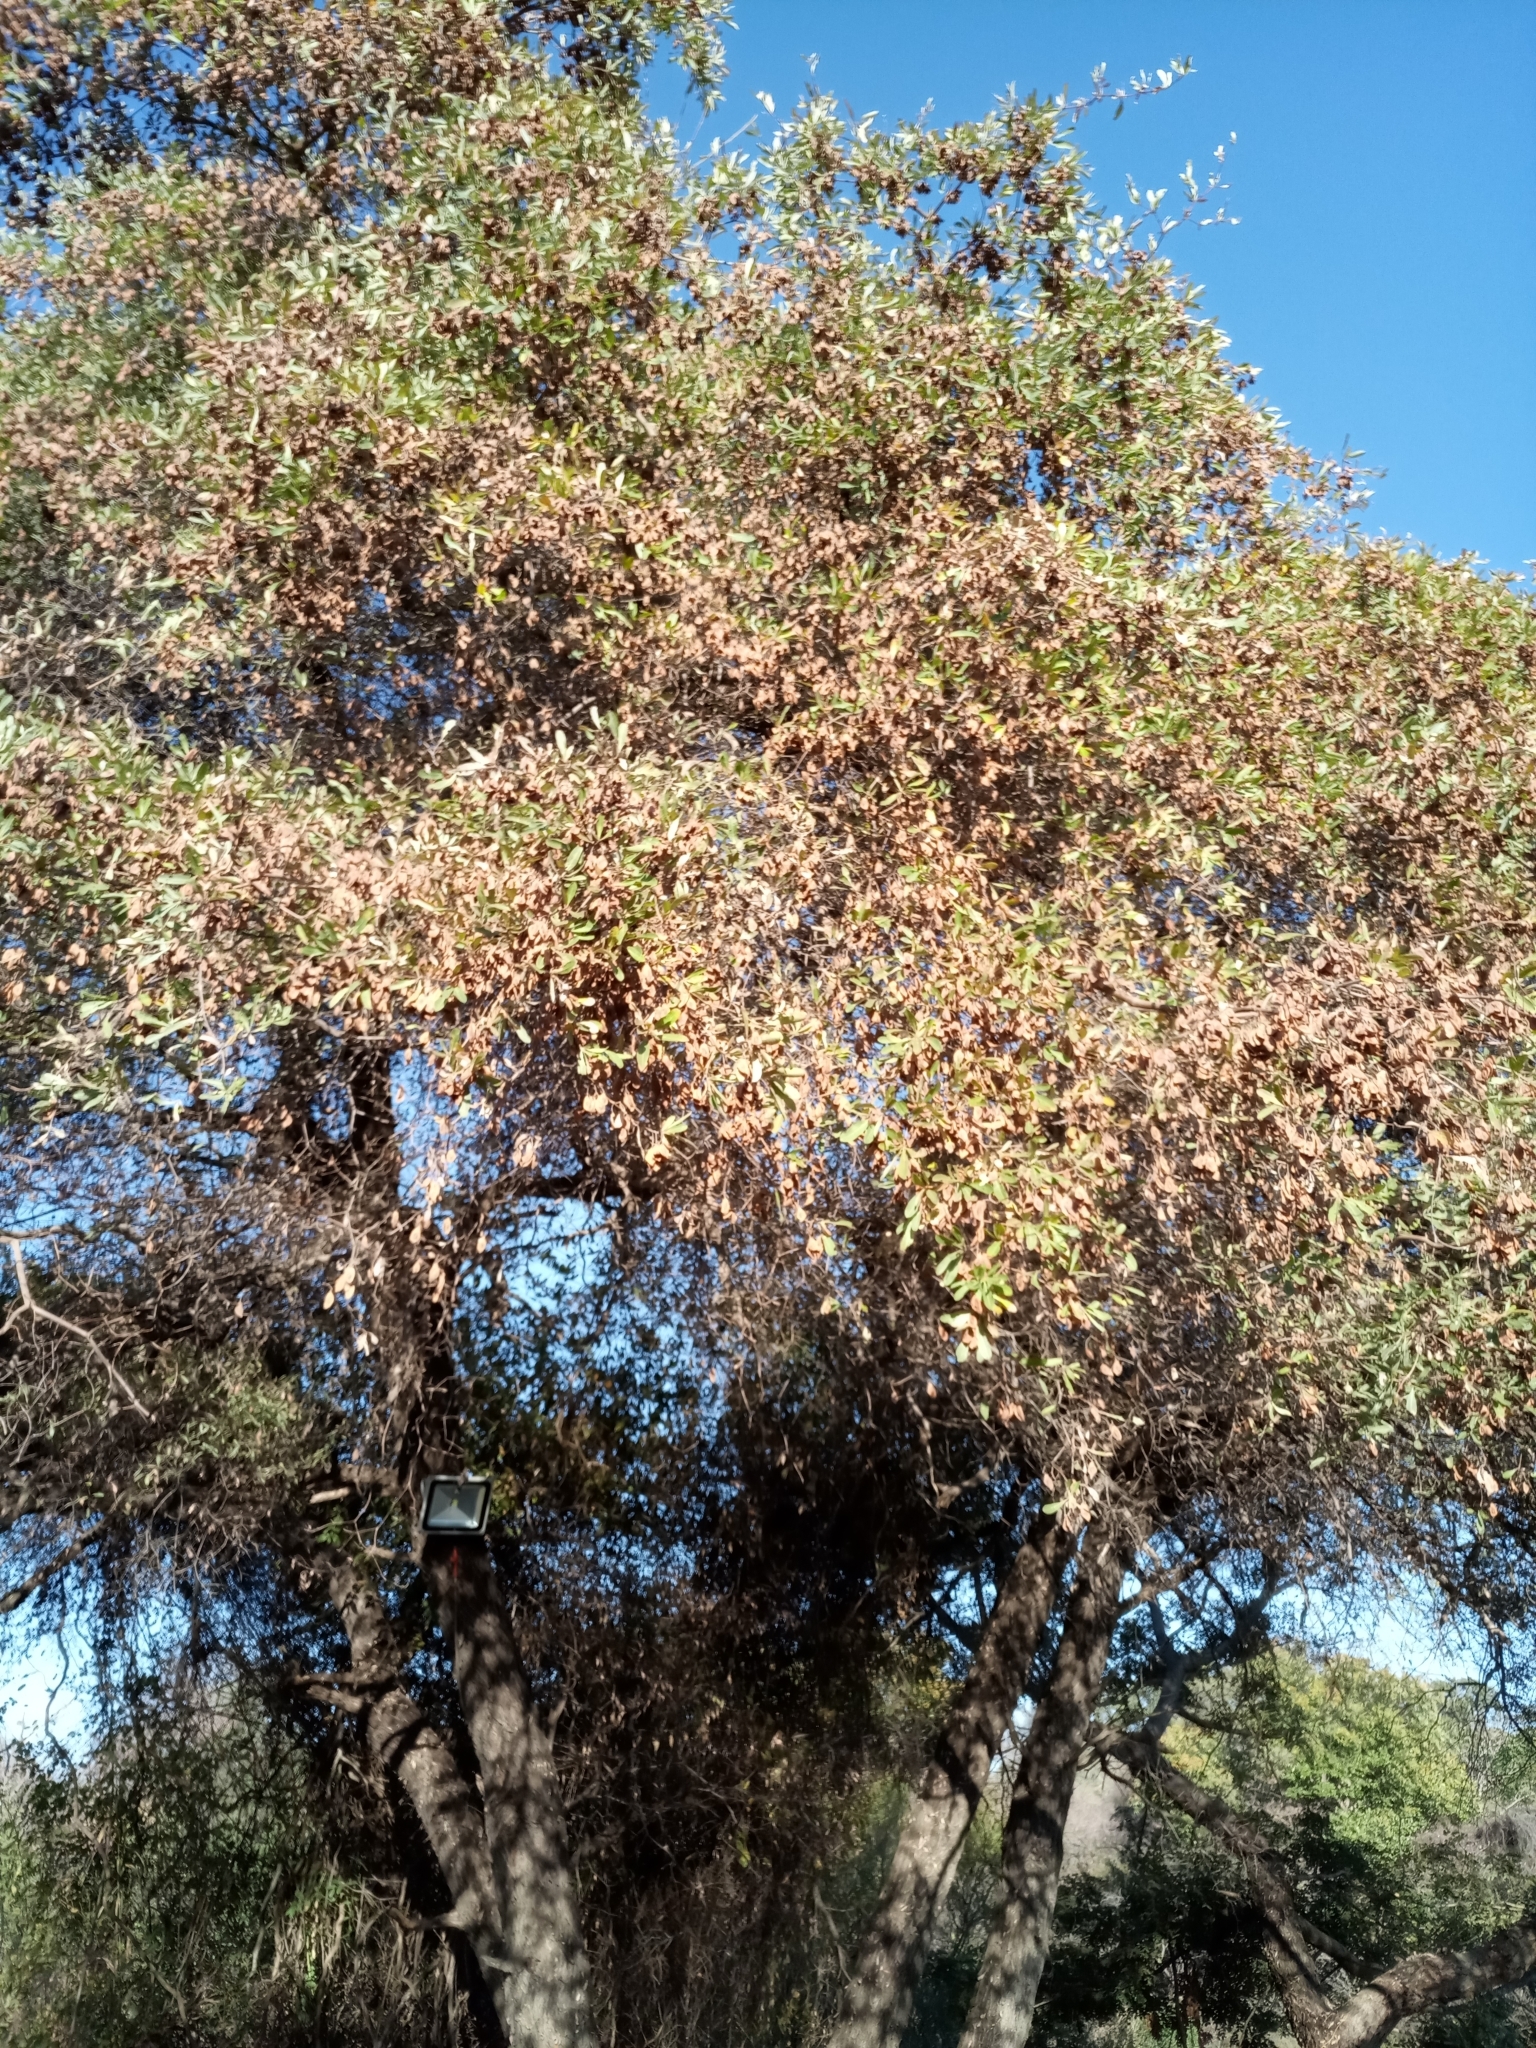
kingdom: Plantae
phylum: Tracheophyta
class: Magnoliopsida
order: Myrtales
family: Combretaceae
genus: Terminalia
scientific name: Terminalia sericea
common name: Clusterleaf
